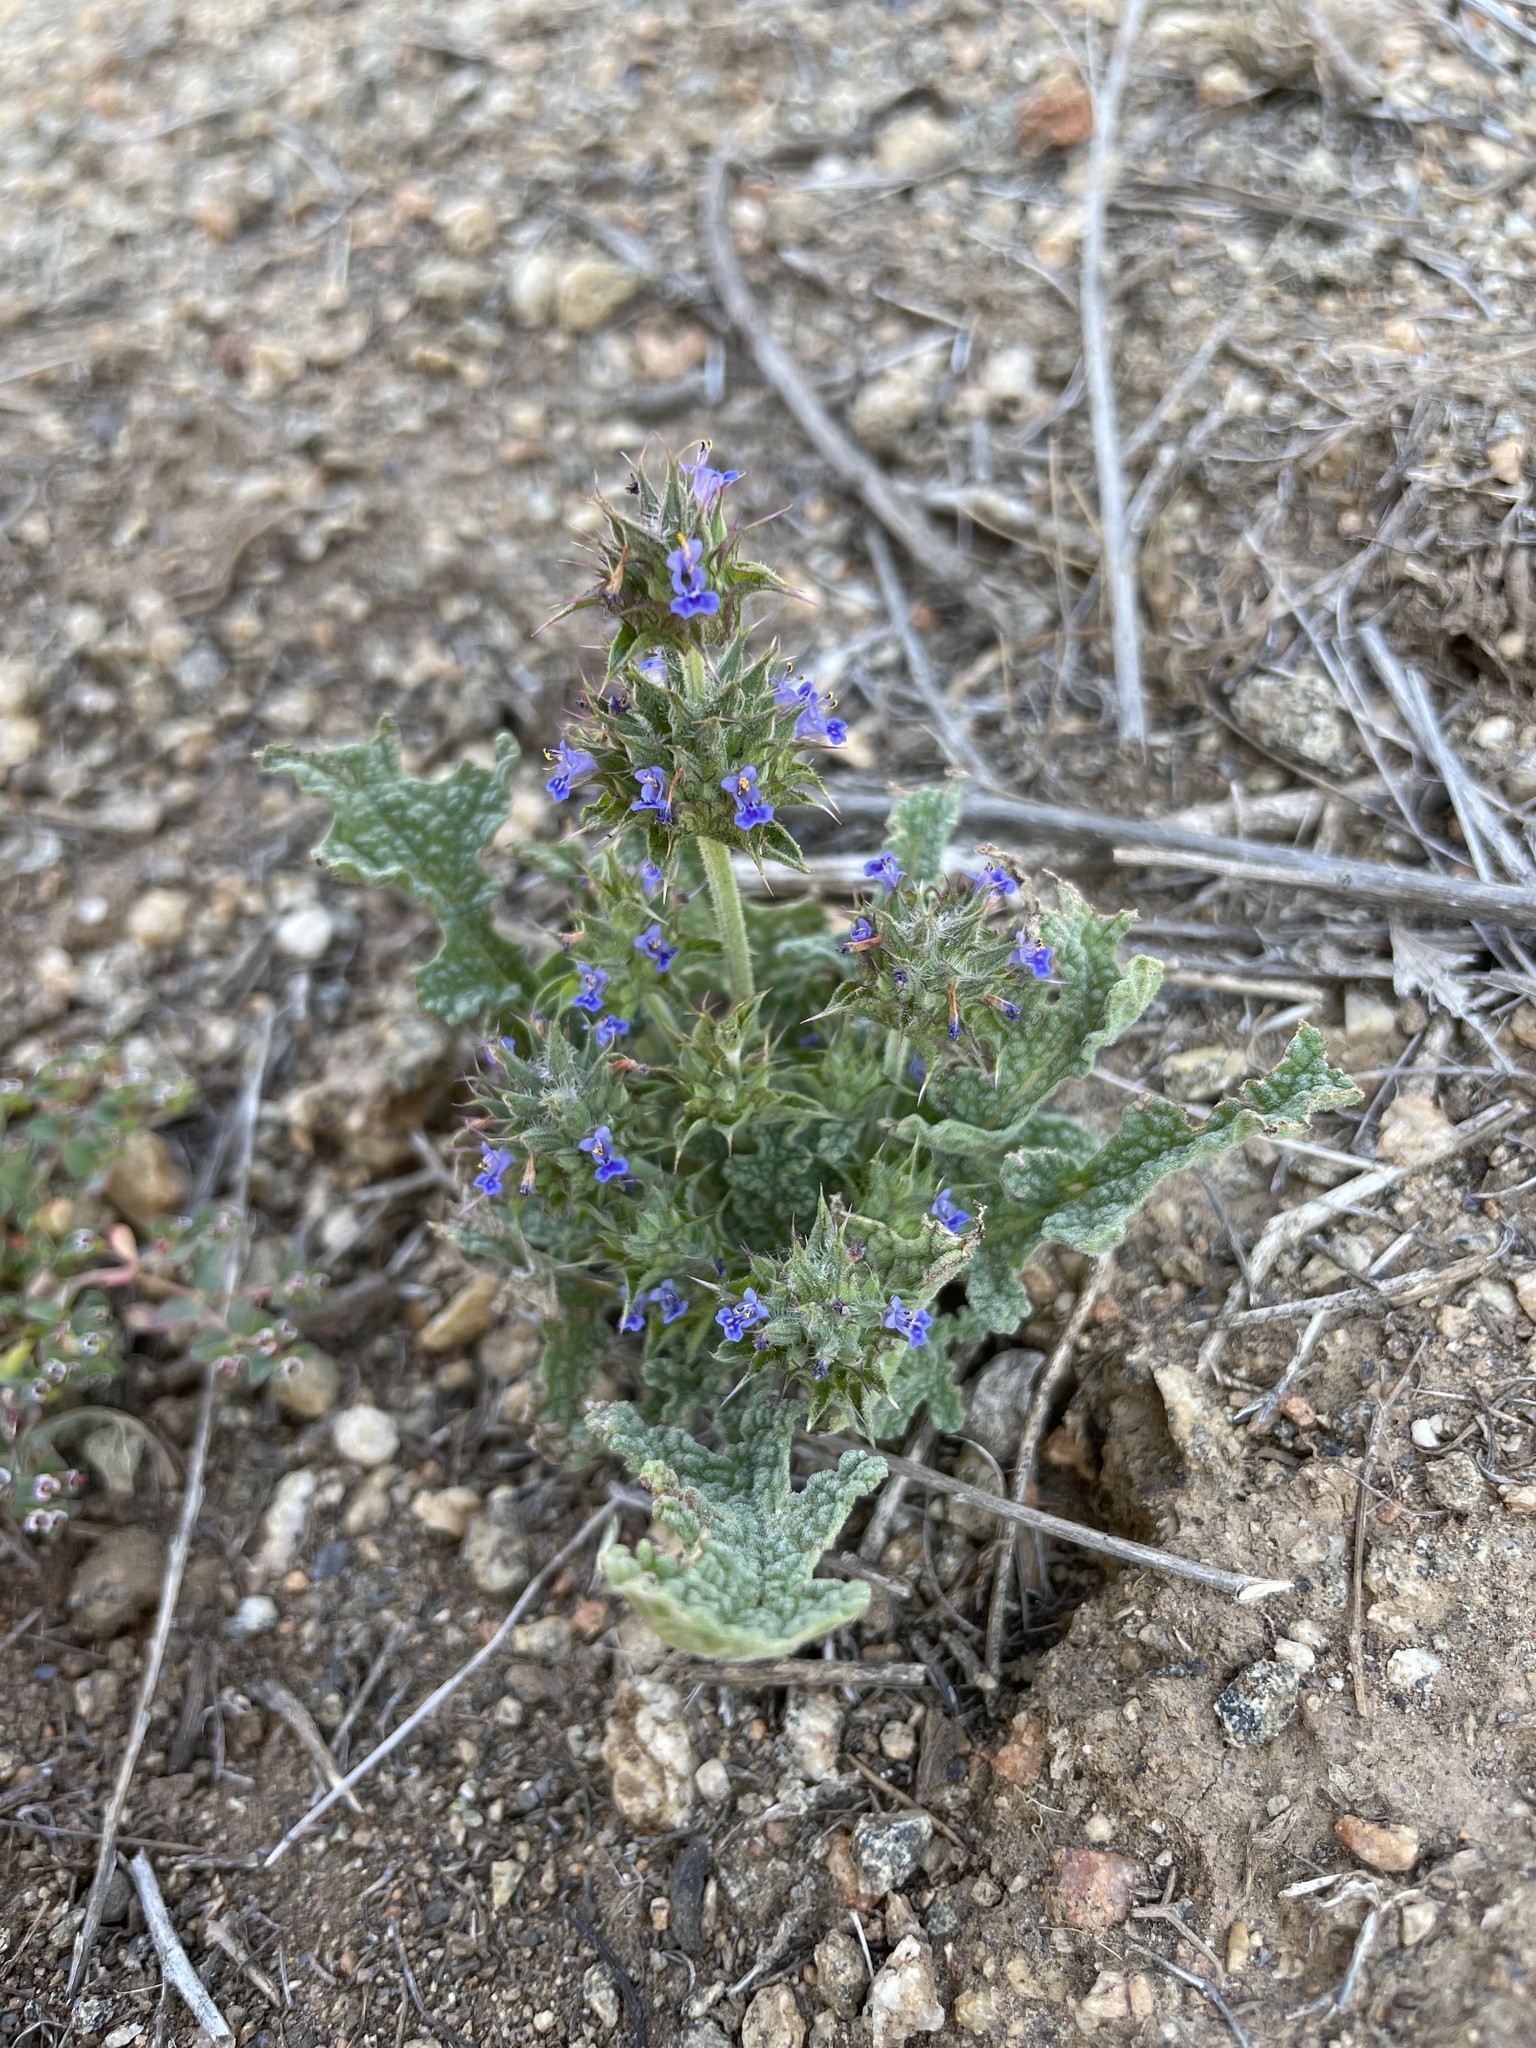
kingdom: Plantae
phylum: Tracheophyta
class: Magnoliopsida
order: Lamiales
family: Lamiaceae
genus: Salvia
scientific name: Salvia columbariae
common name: Chia
